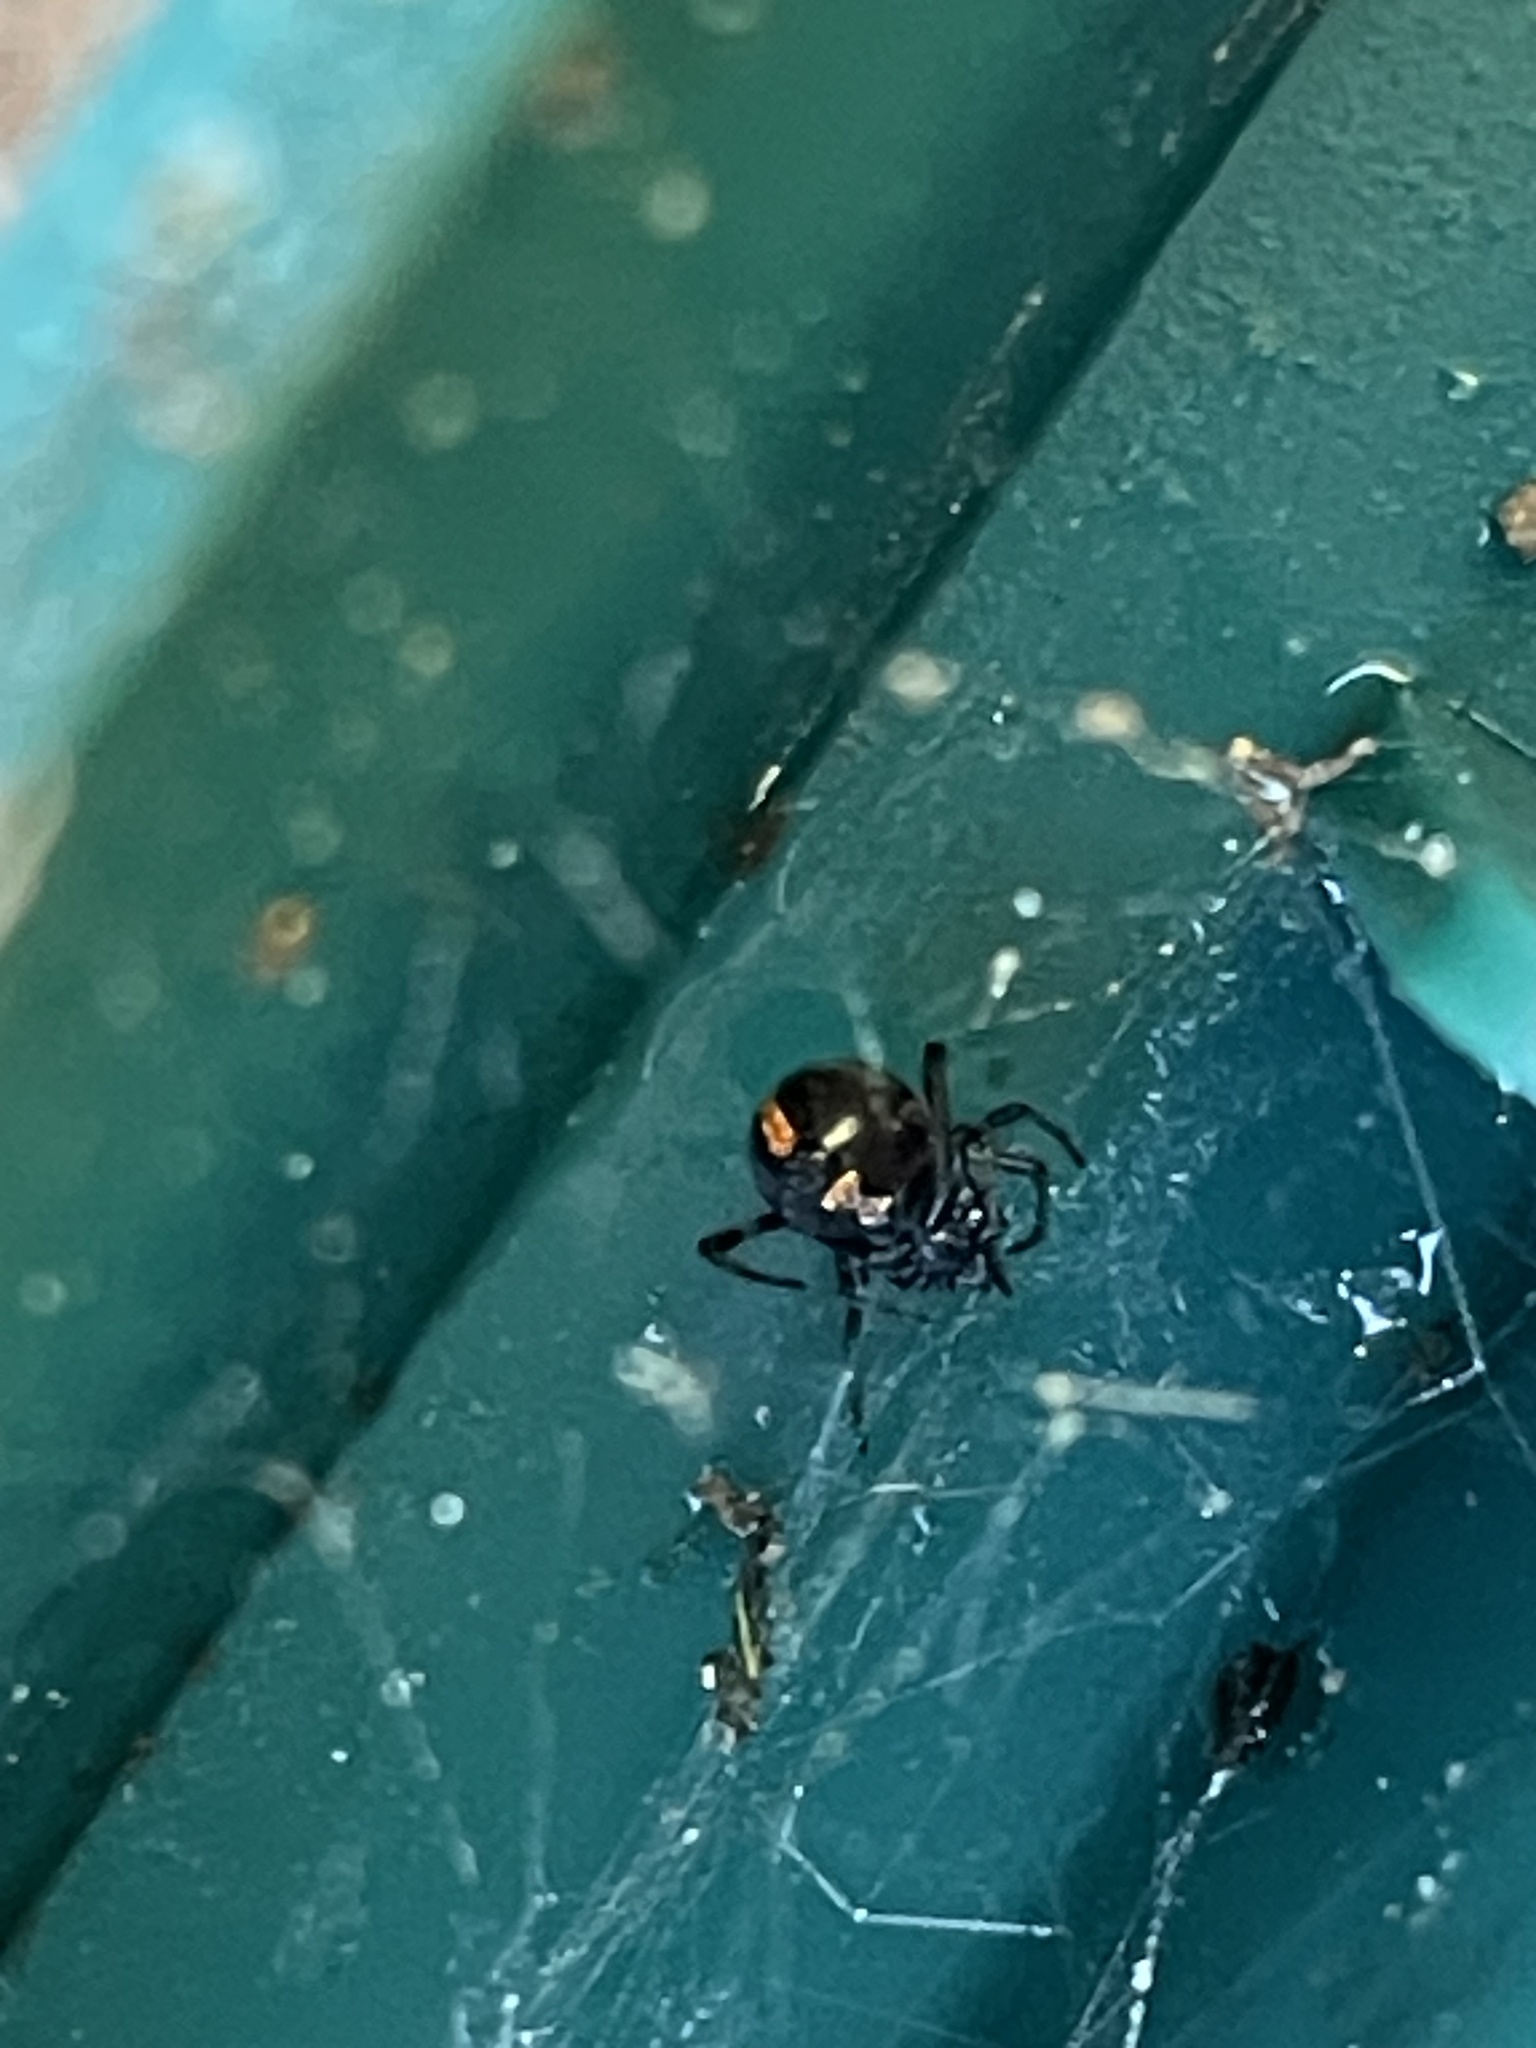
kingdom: Animalia
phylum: Arthropoda
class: Arachnida
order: Araneae
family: Theridiidae
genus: Latrodectus
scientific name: Latrodectus mactans
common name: Cobweb spiders
